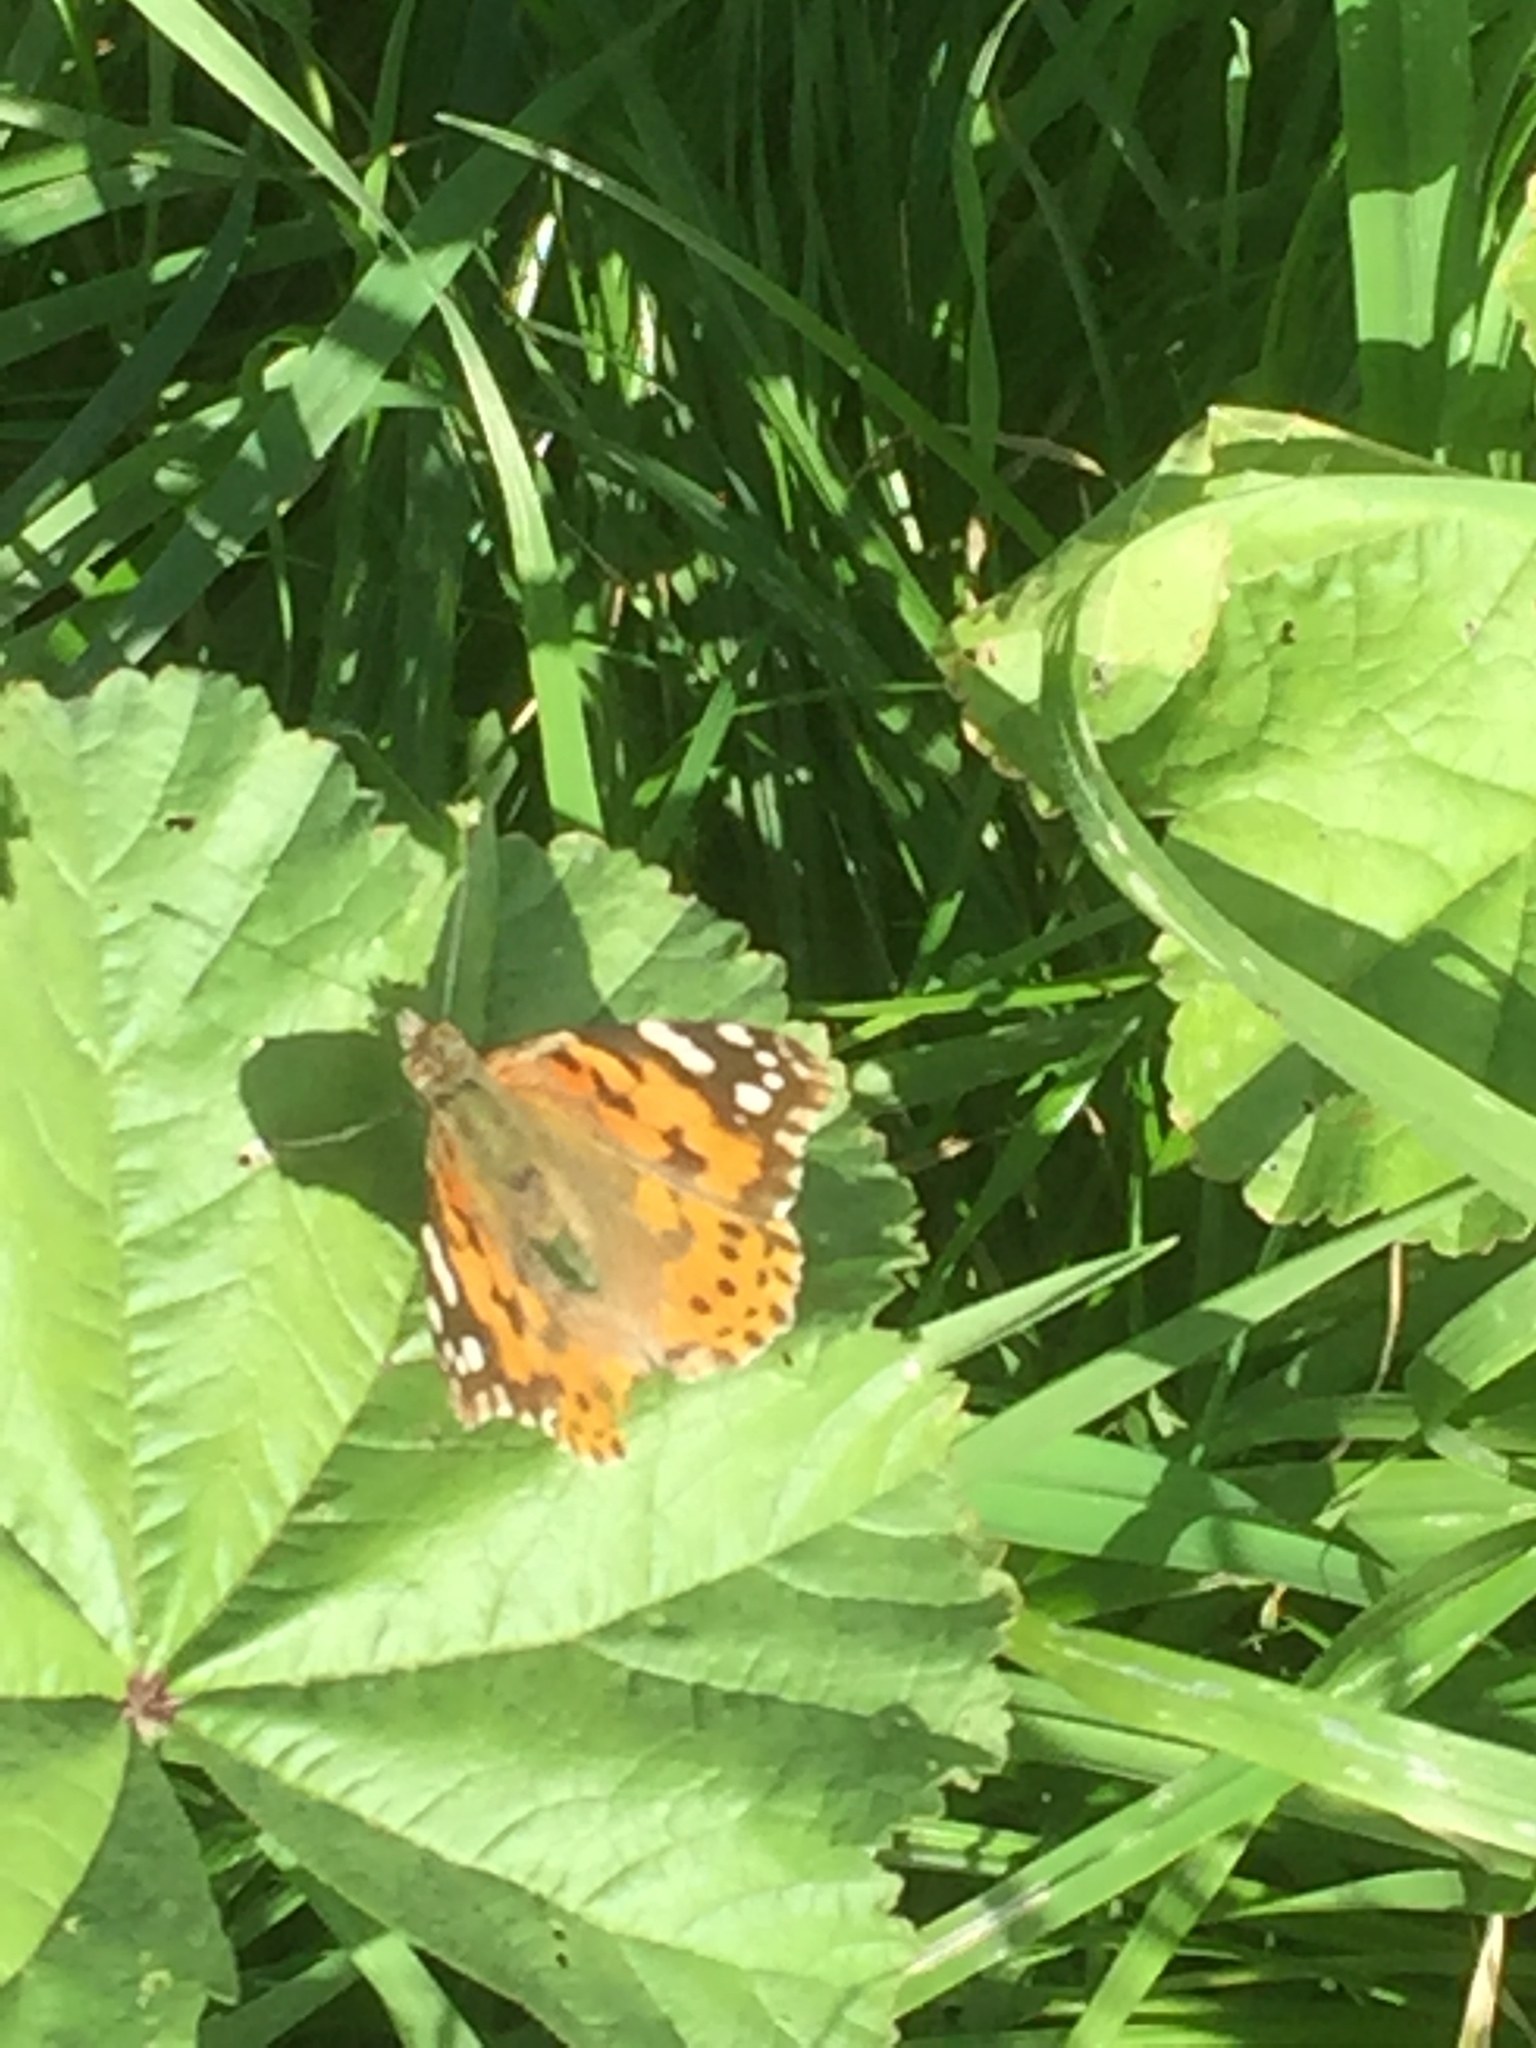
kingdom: Animalia
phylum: Arthropoda
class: Insecta
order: Lepidoptera
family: Nymphalidae
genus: Vanessa
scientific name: Vanessa cardui
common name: Painted lady
